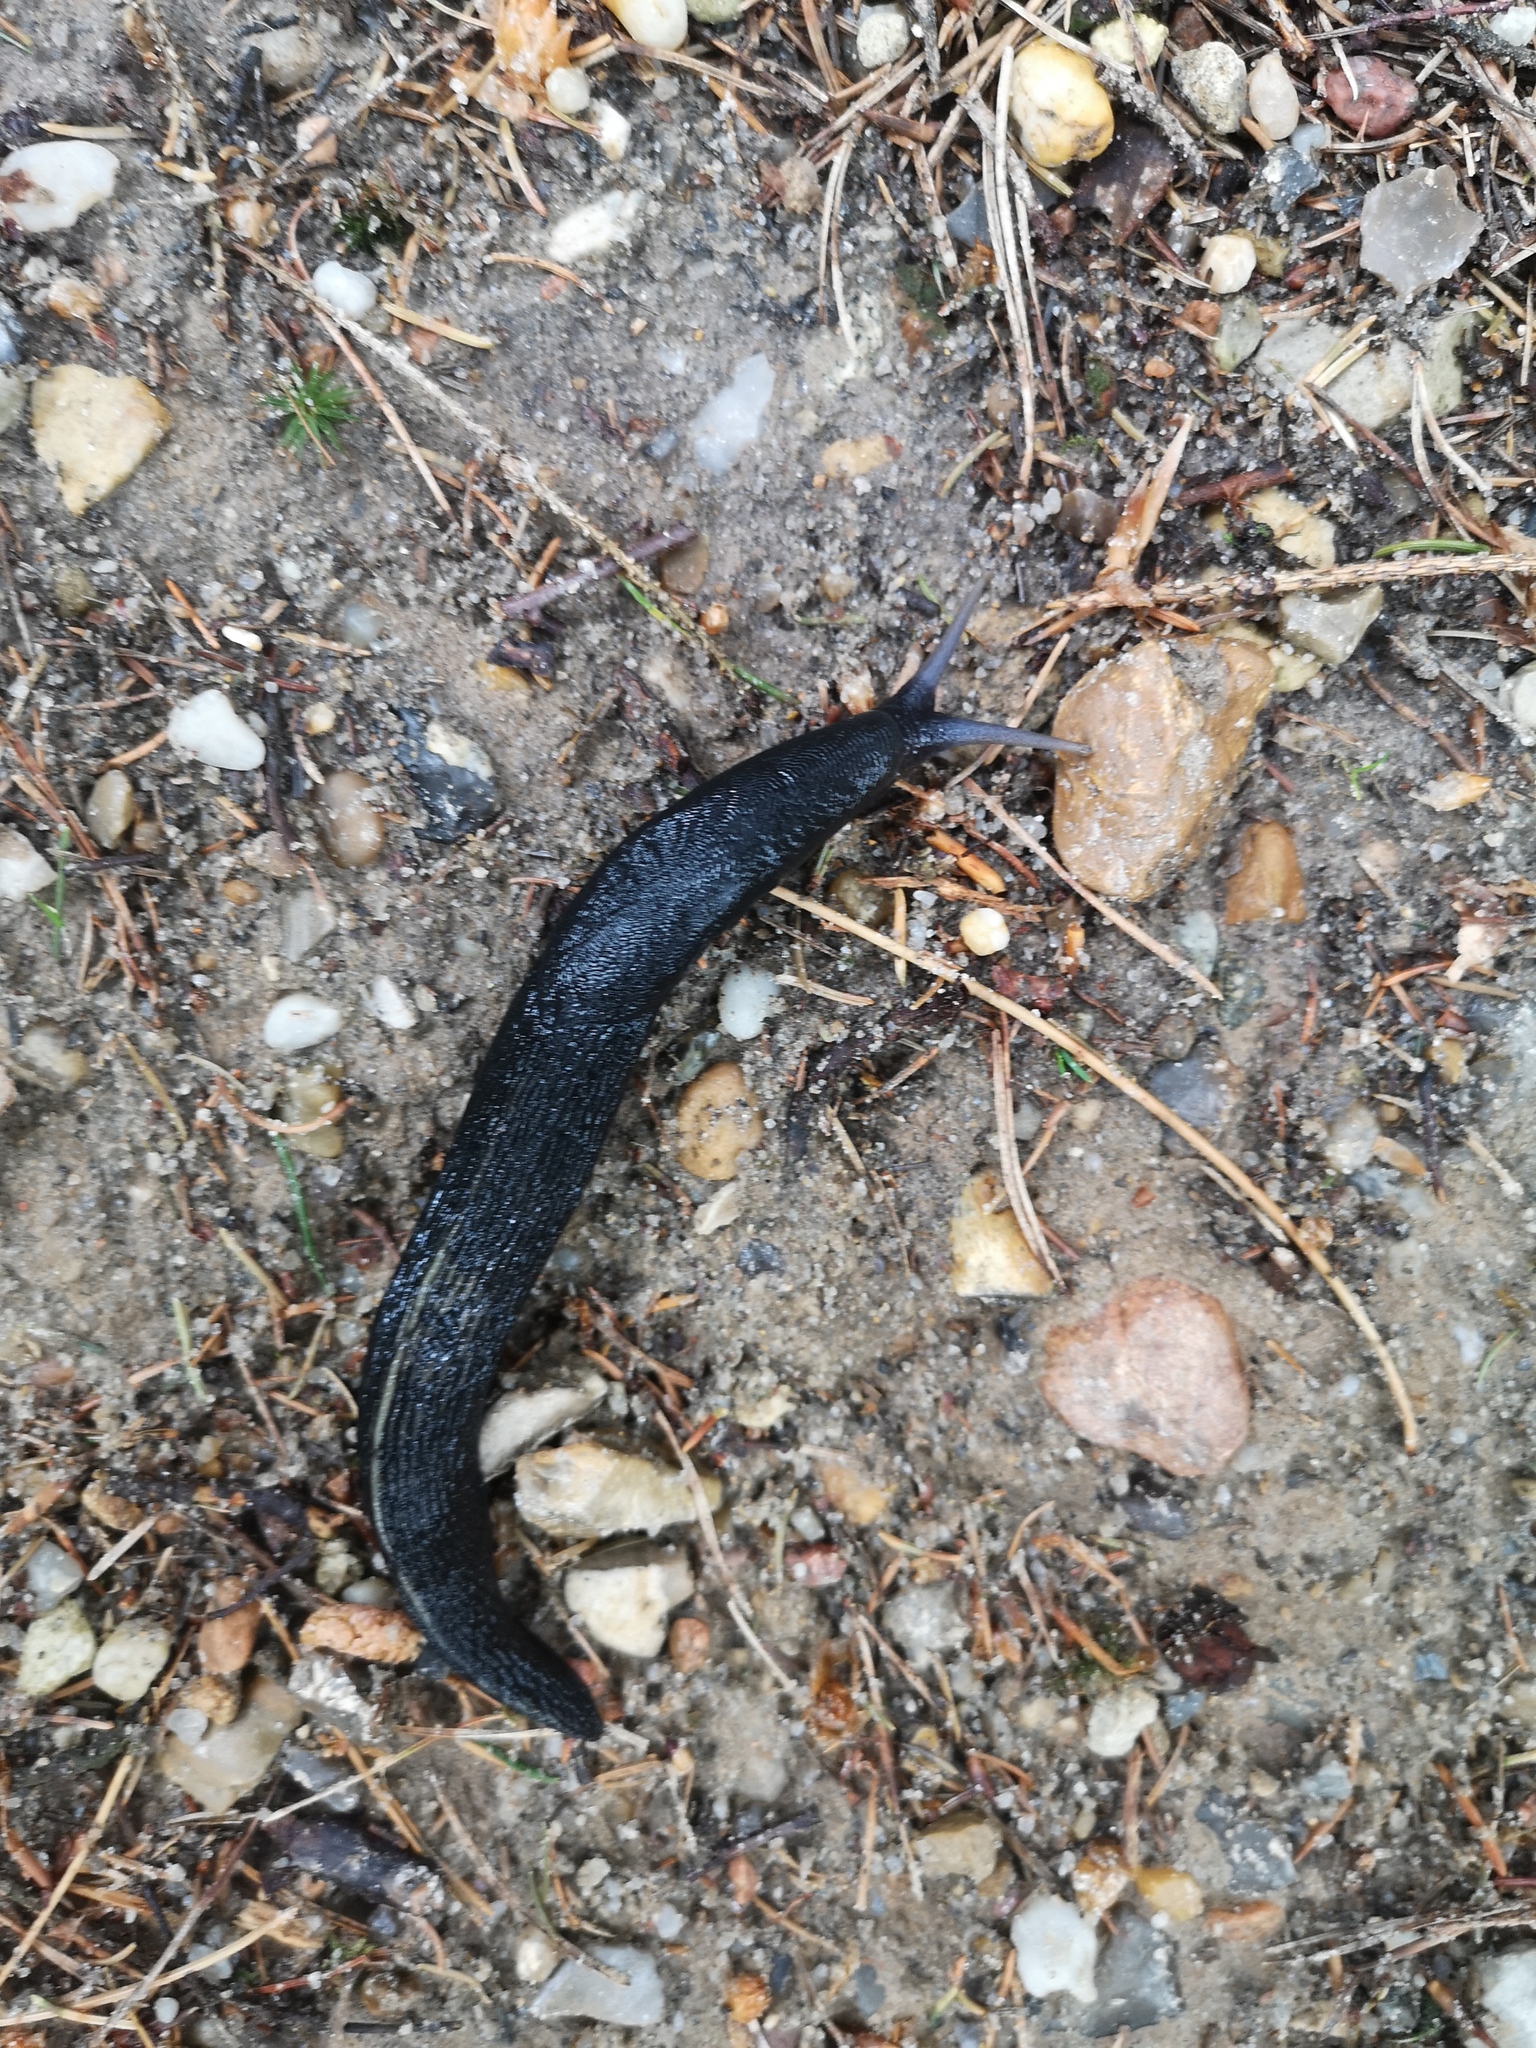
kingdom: Animalia
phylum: Mollusca
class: Gastropoda
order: Stylommatophora
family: Limacidae
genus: Limax
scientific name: Limax cinereoniger
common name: Ash-black slug
